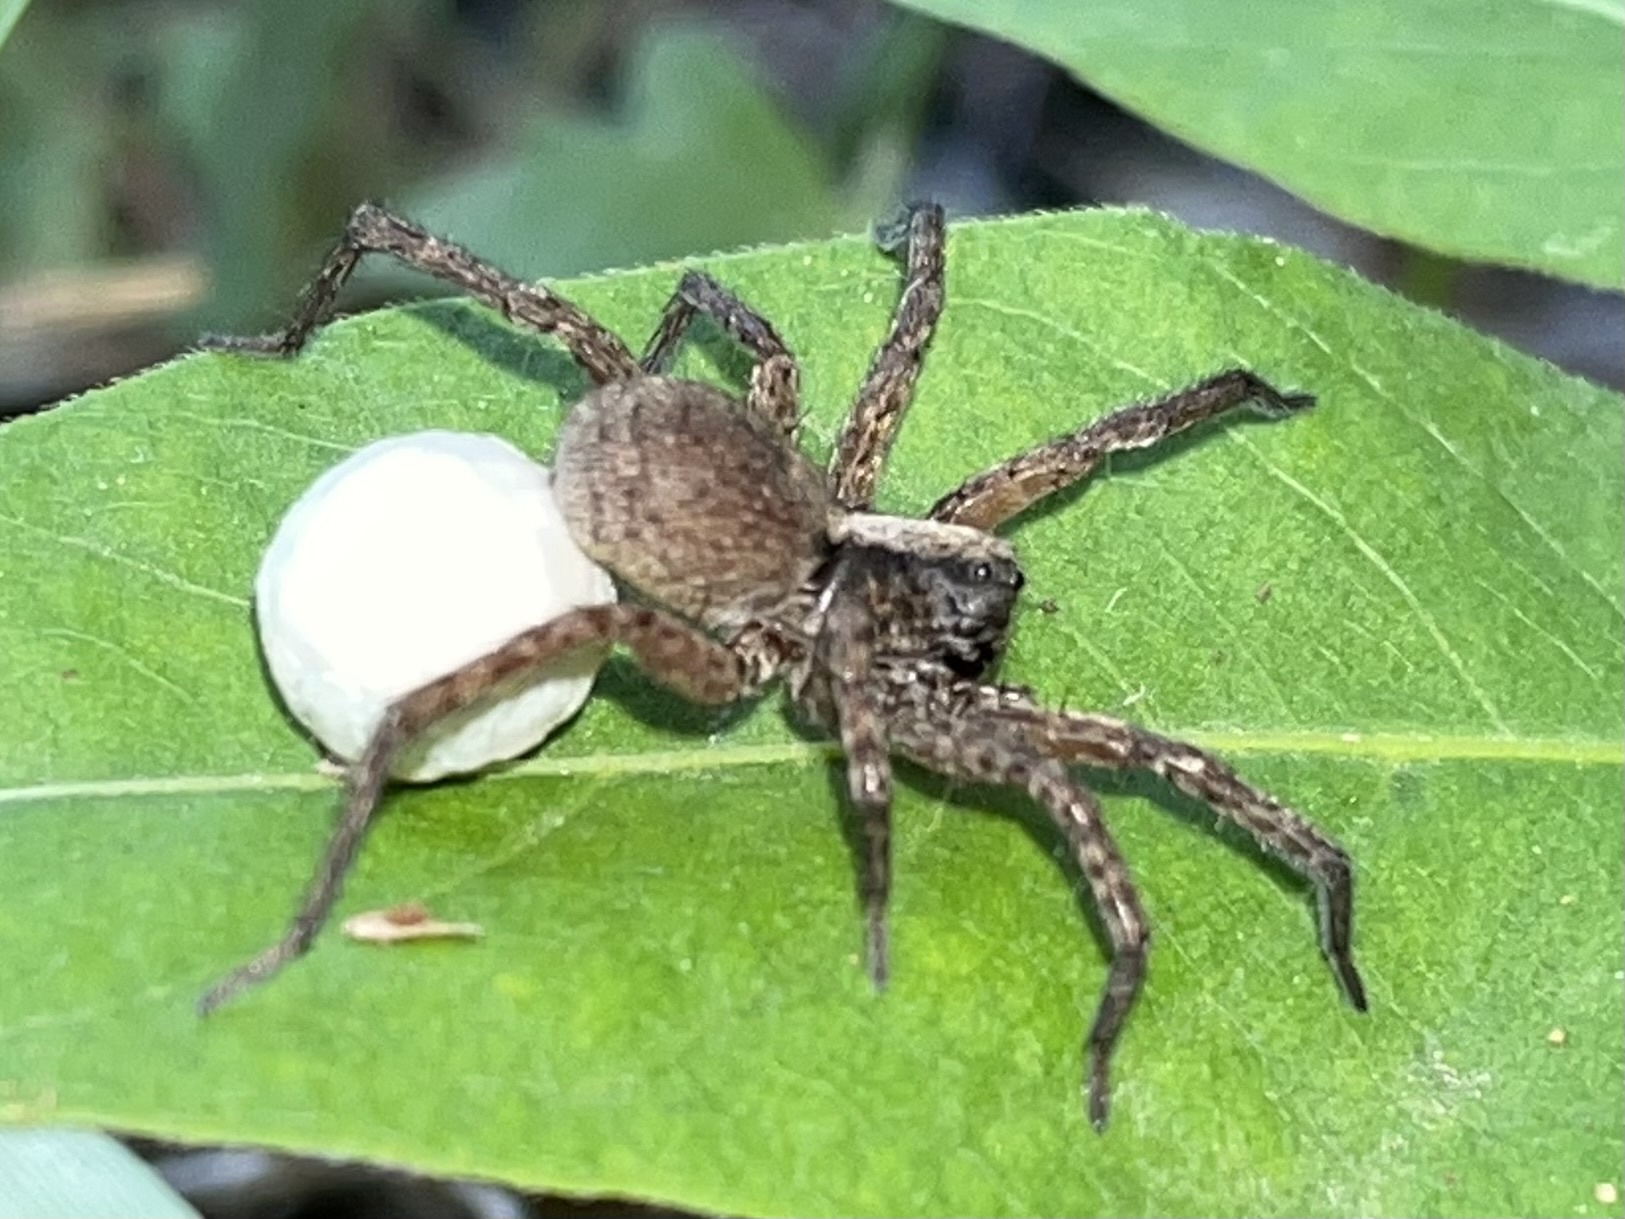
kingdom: Animalia
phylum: Arthropoda
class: Arachnida
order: Araneae
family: Lycosidae
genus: Schizocosa
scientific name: Schizocosa rovneri
